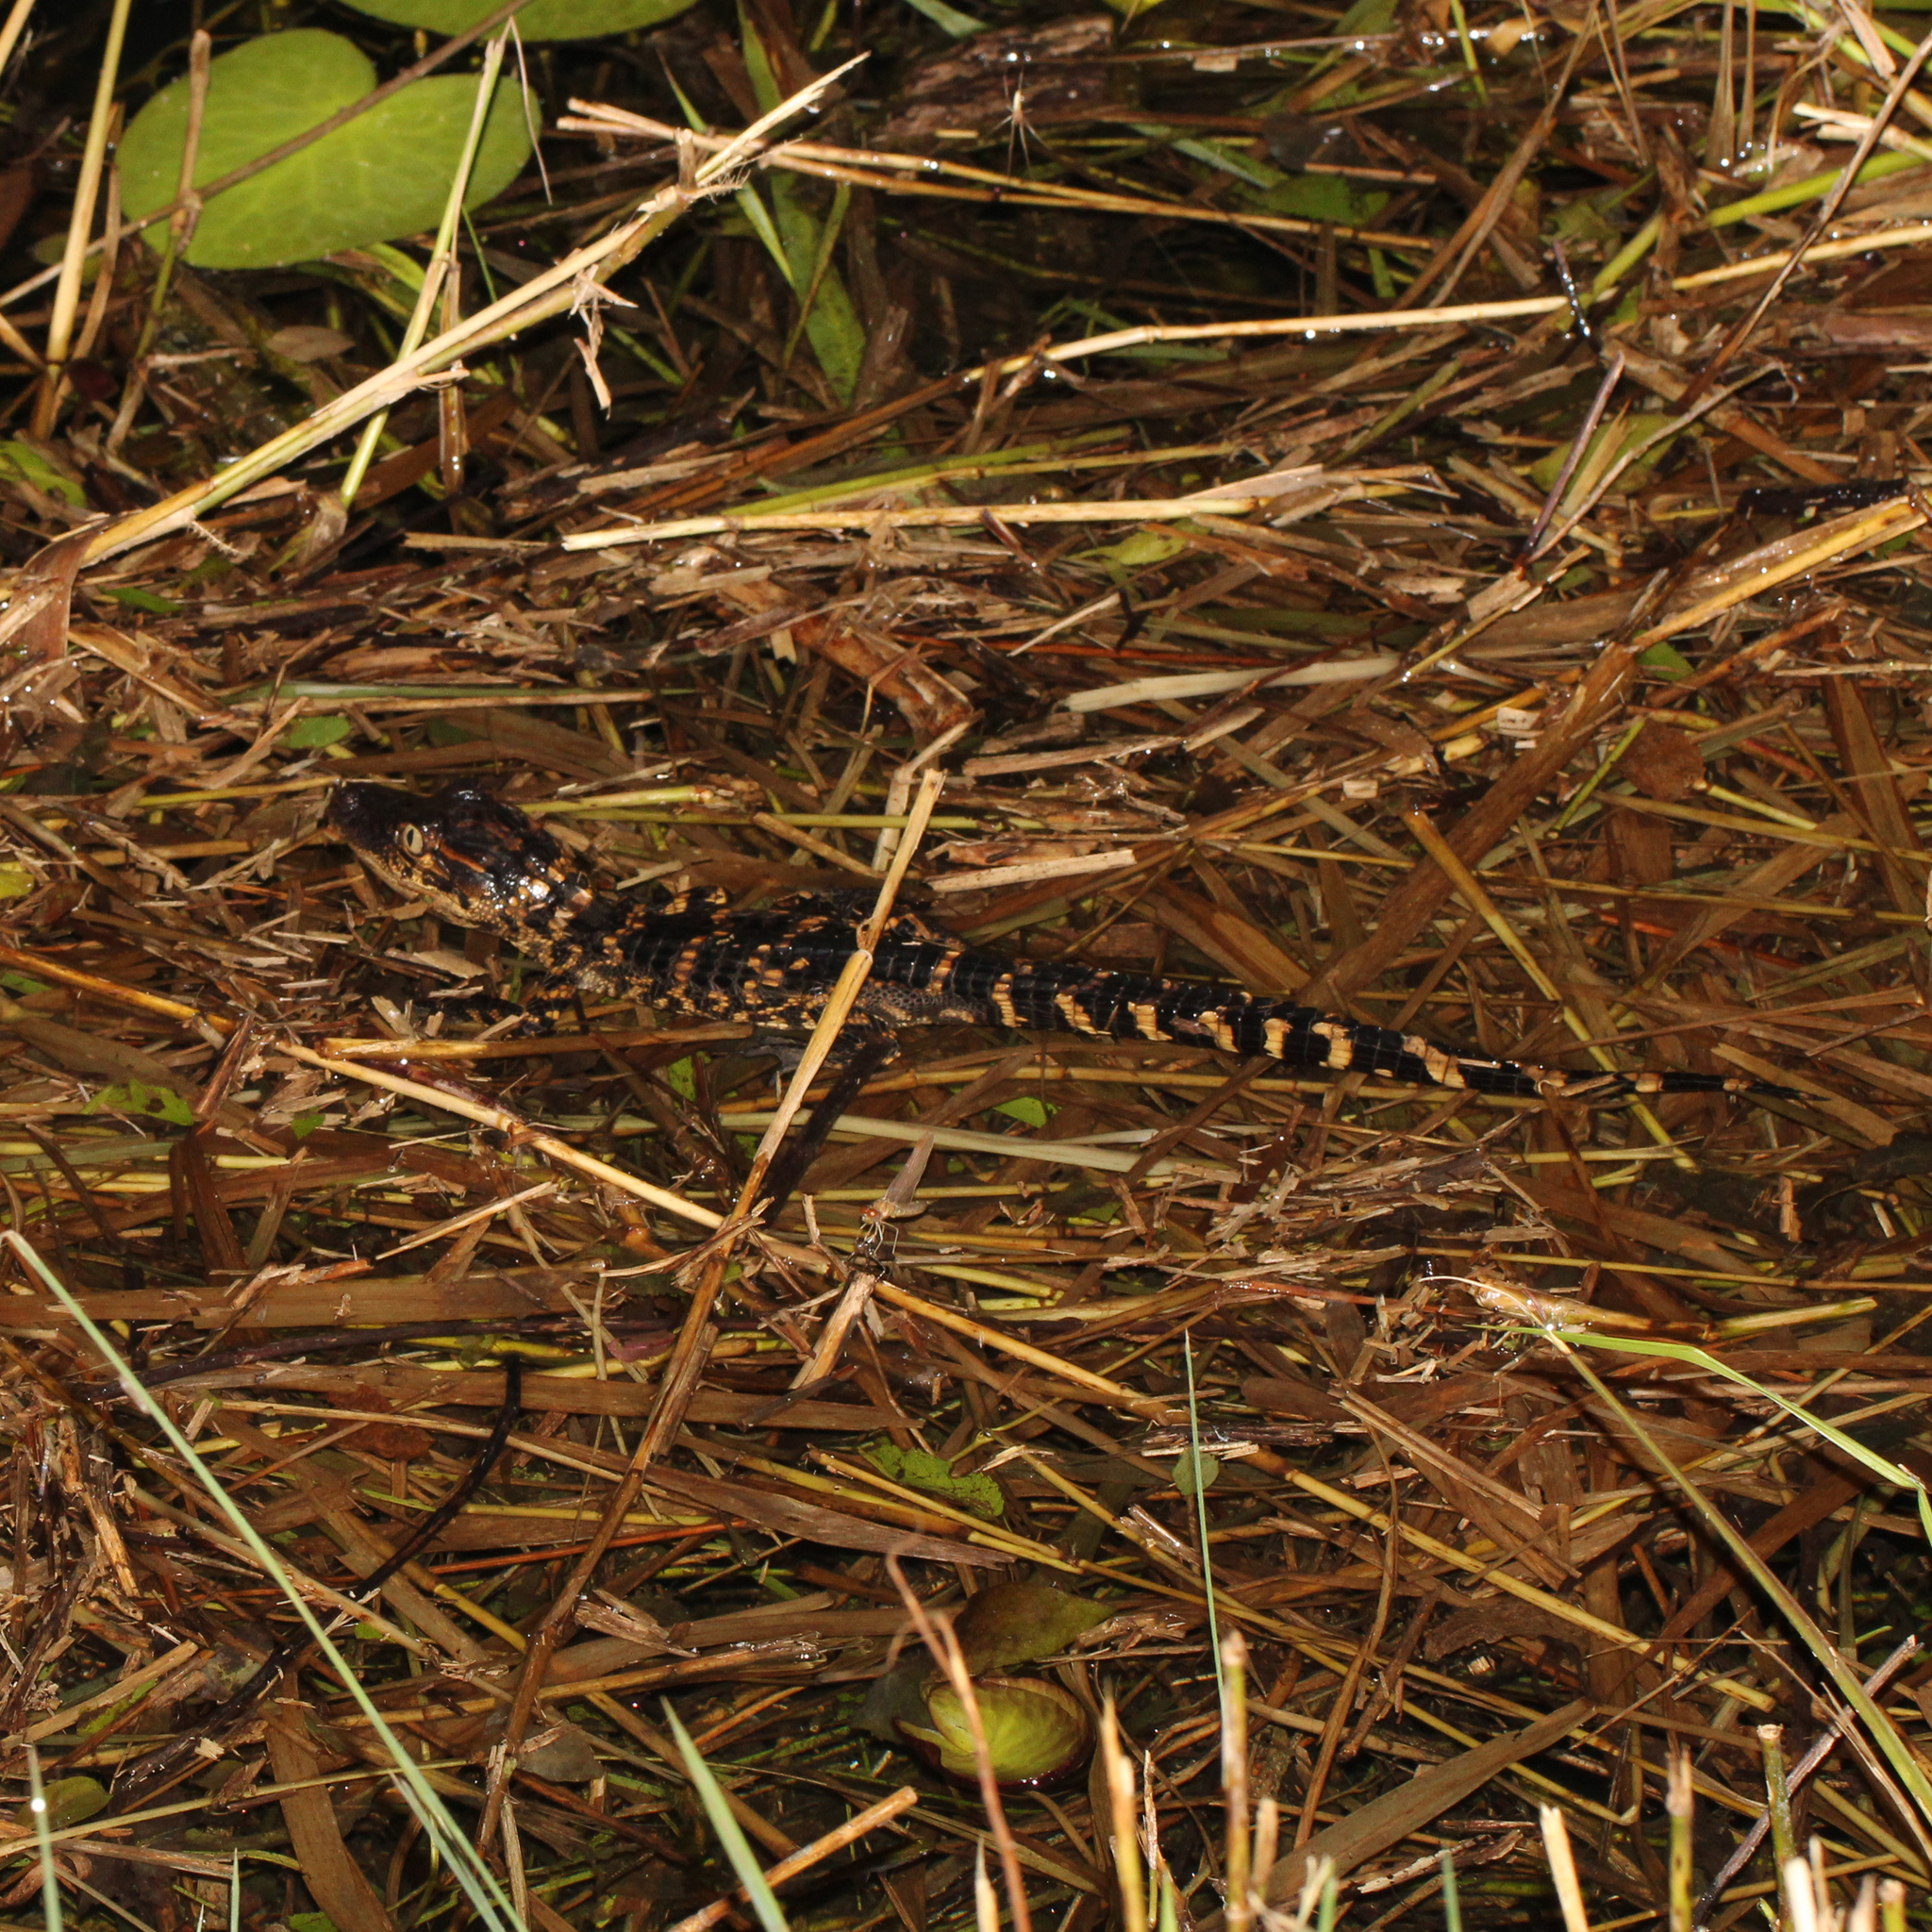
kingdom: Animalia
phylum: Chordata
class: Crocodylia
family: Alligatoridae
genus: Alligator
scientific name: Alligator mississippiensis
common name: American alligator
